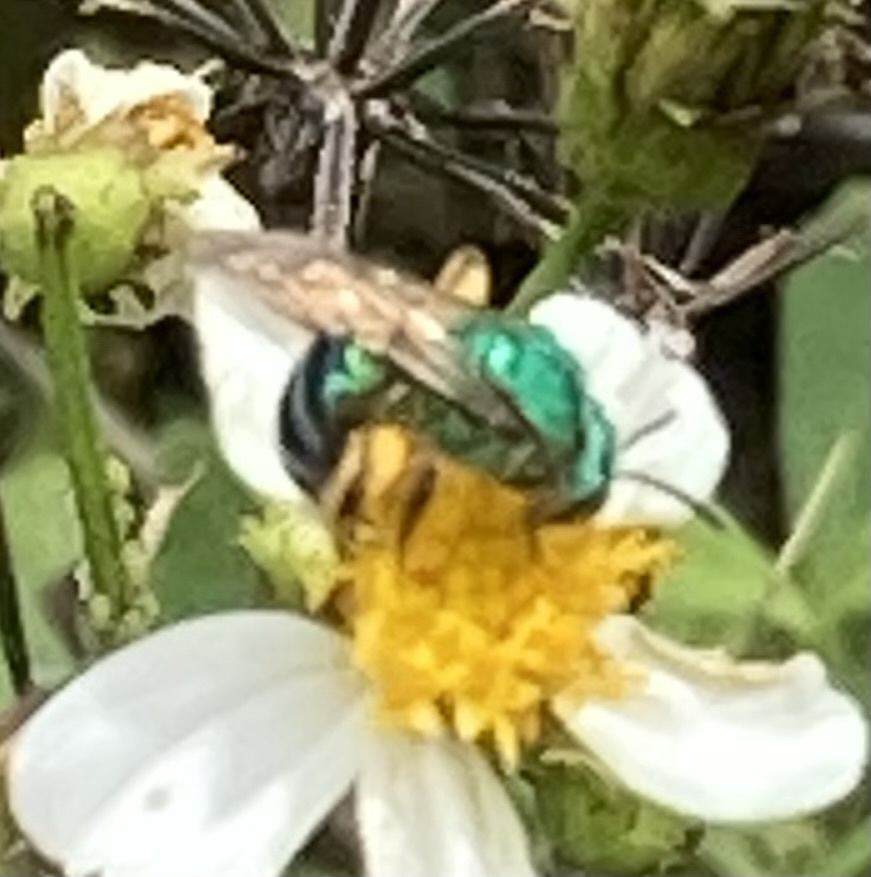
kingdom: Animalia
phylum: Arthropoda
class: Insecta
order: Hymenoptera
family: Halictidae
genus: Agapostemon
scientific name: Agapostemon splendens
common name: Brown-winged striped sweat bee
